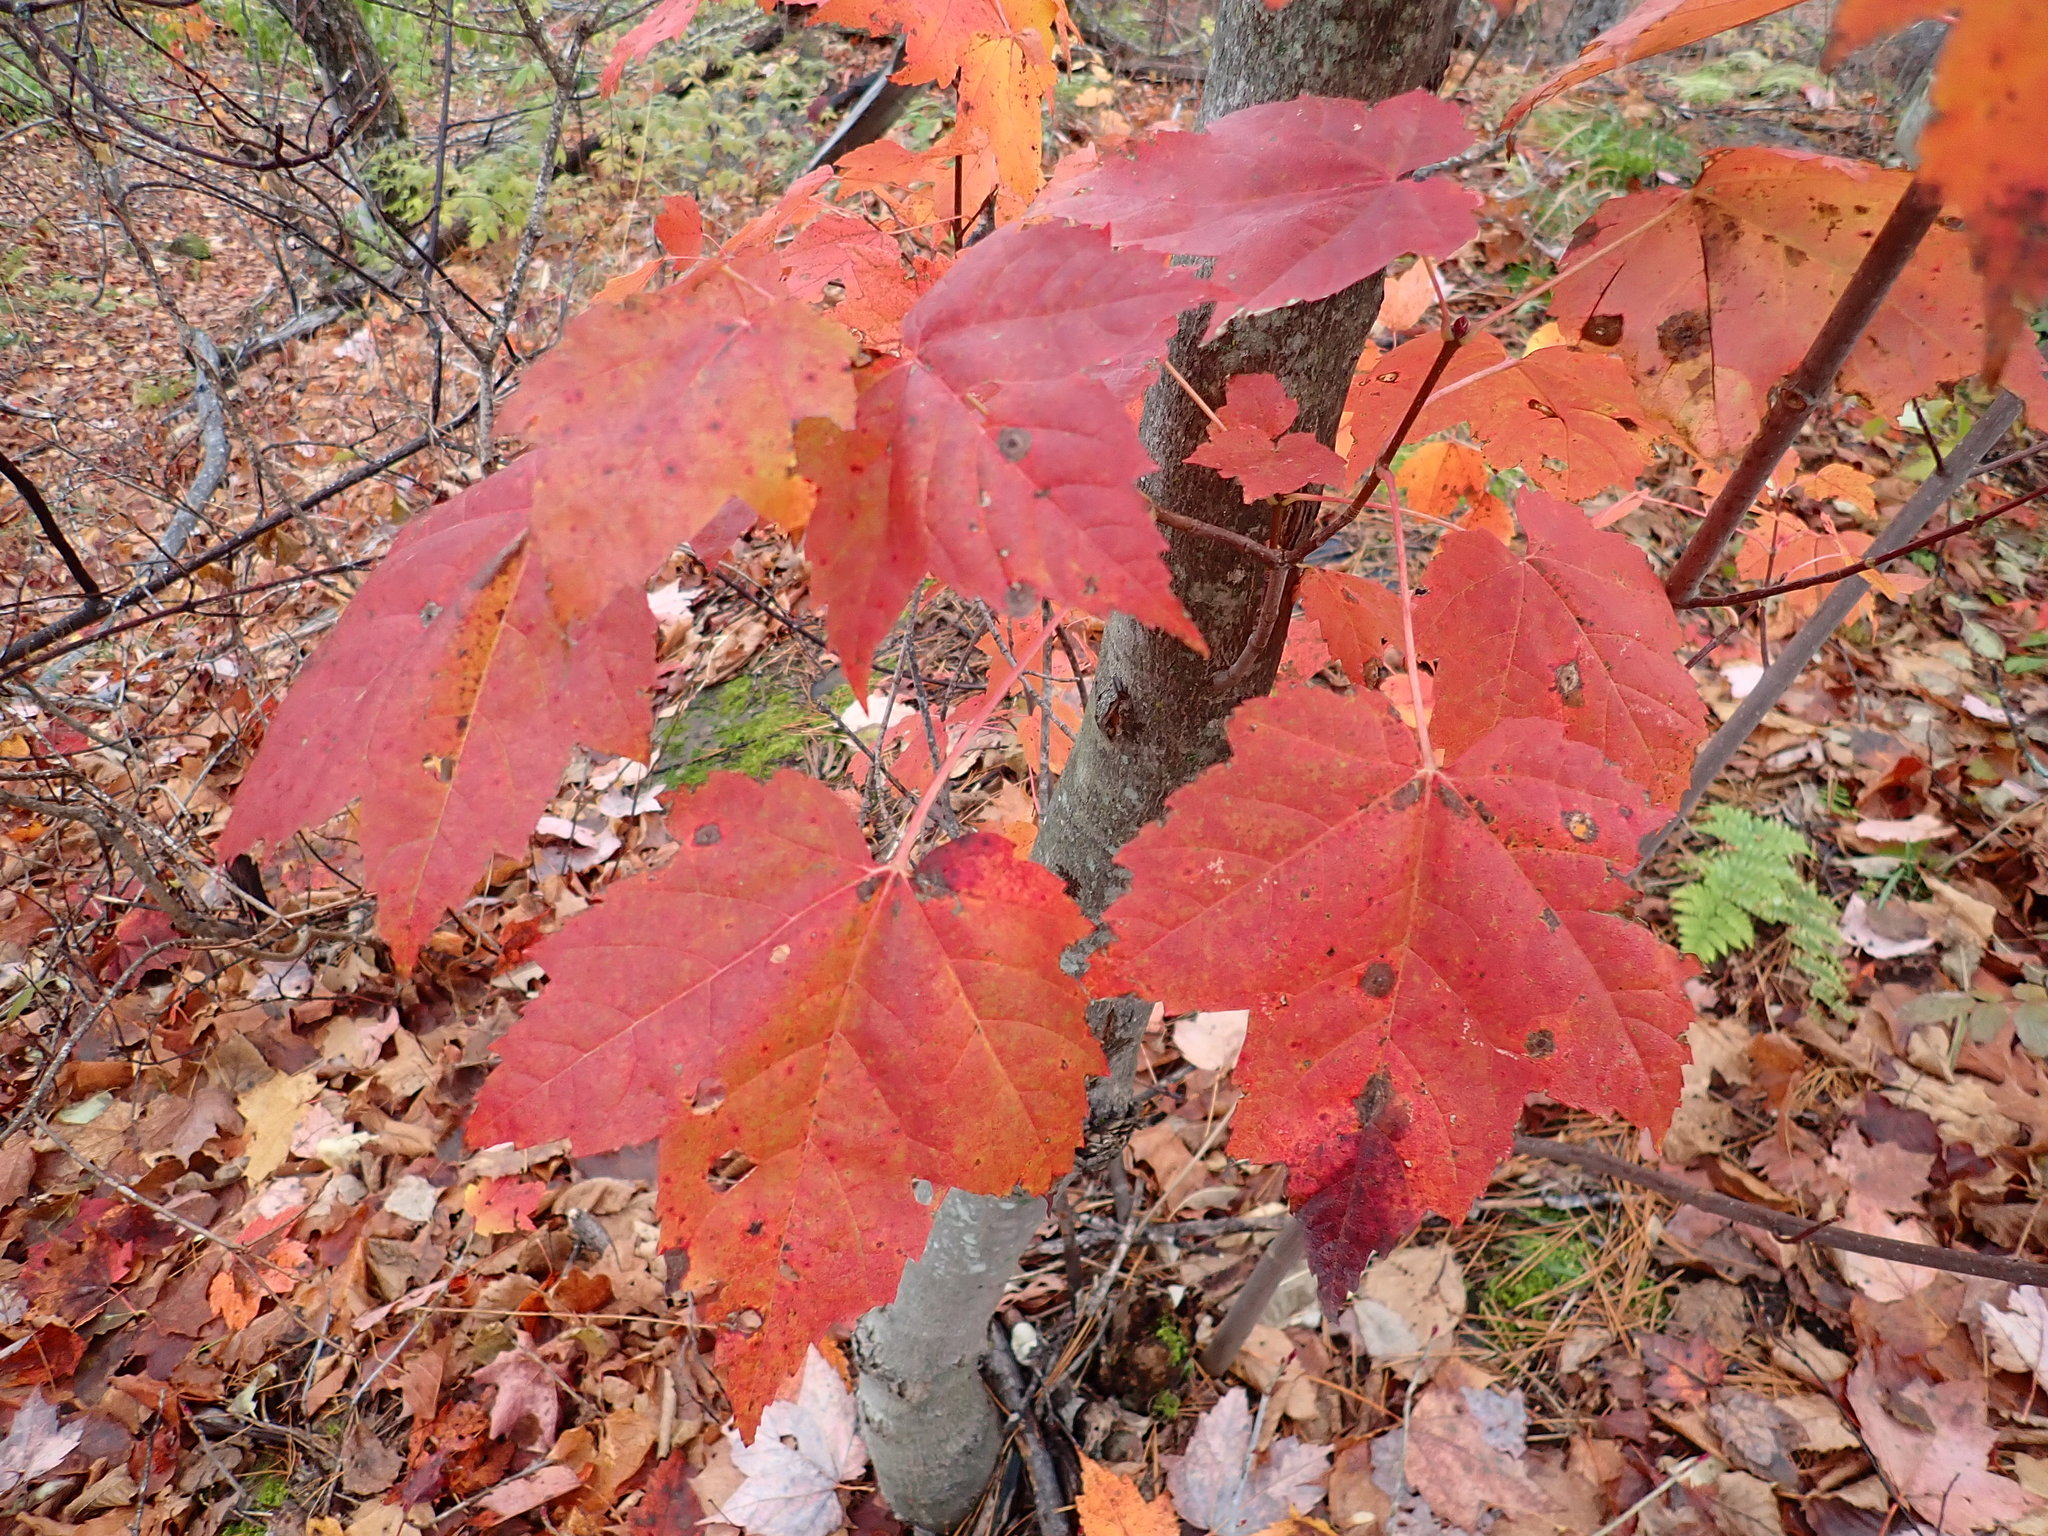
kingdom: Plantae
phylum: Tracheophyta
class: Magnoliopsida
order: Sapindales
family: Sapindaceae
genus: Acer
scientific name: Acer rubrum
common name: Red maple
